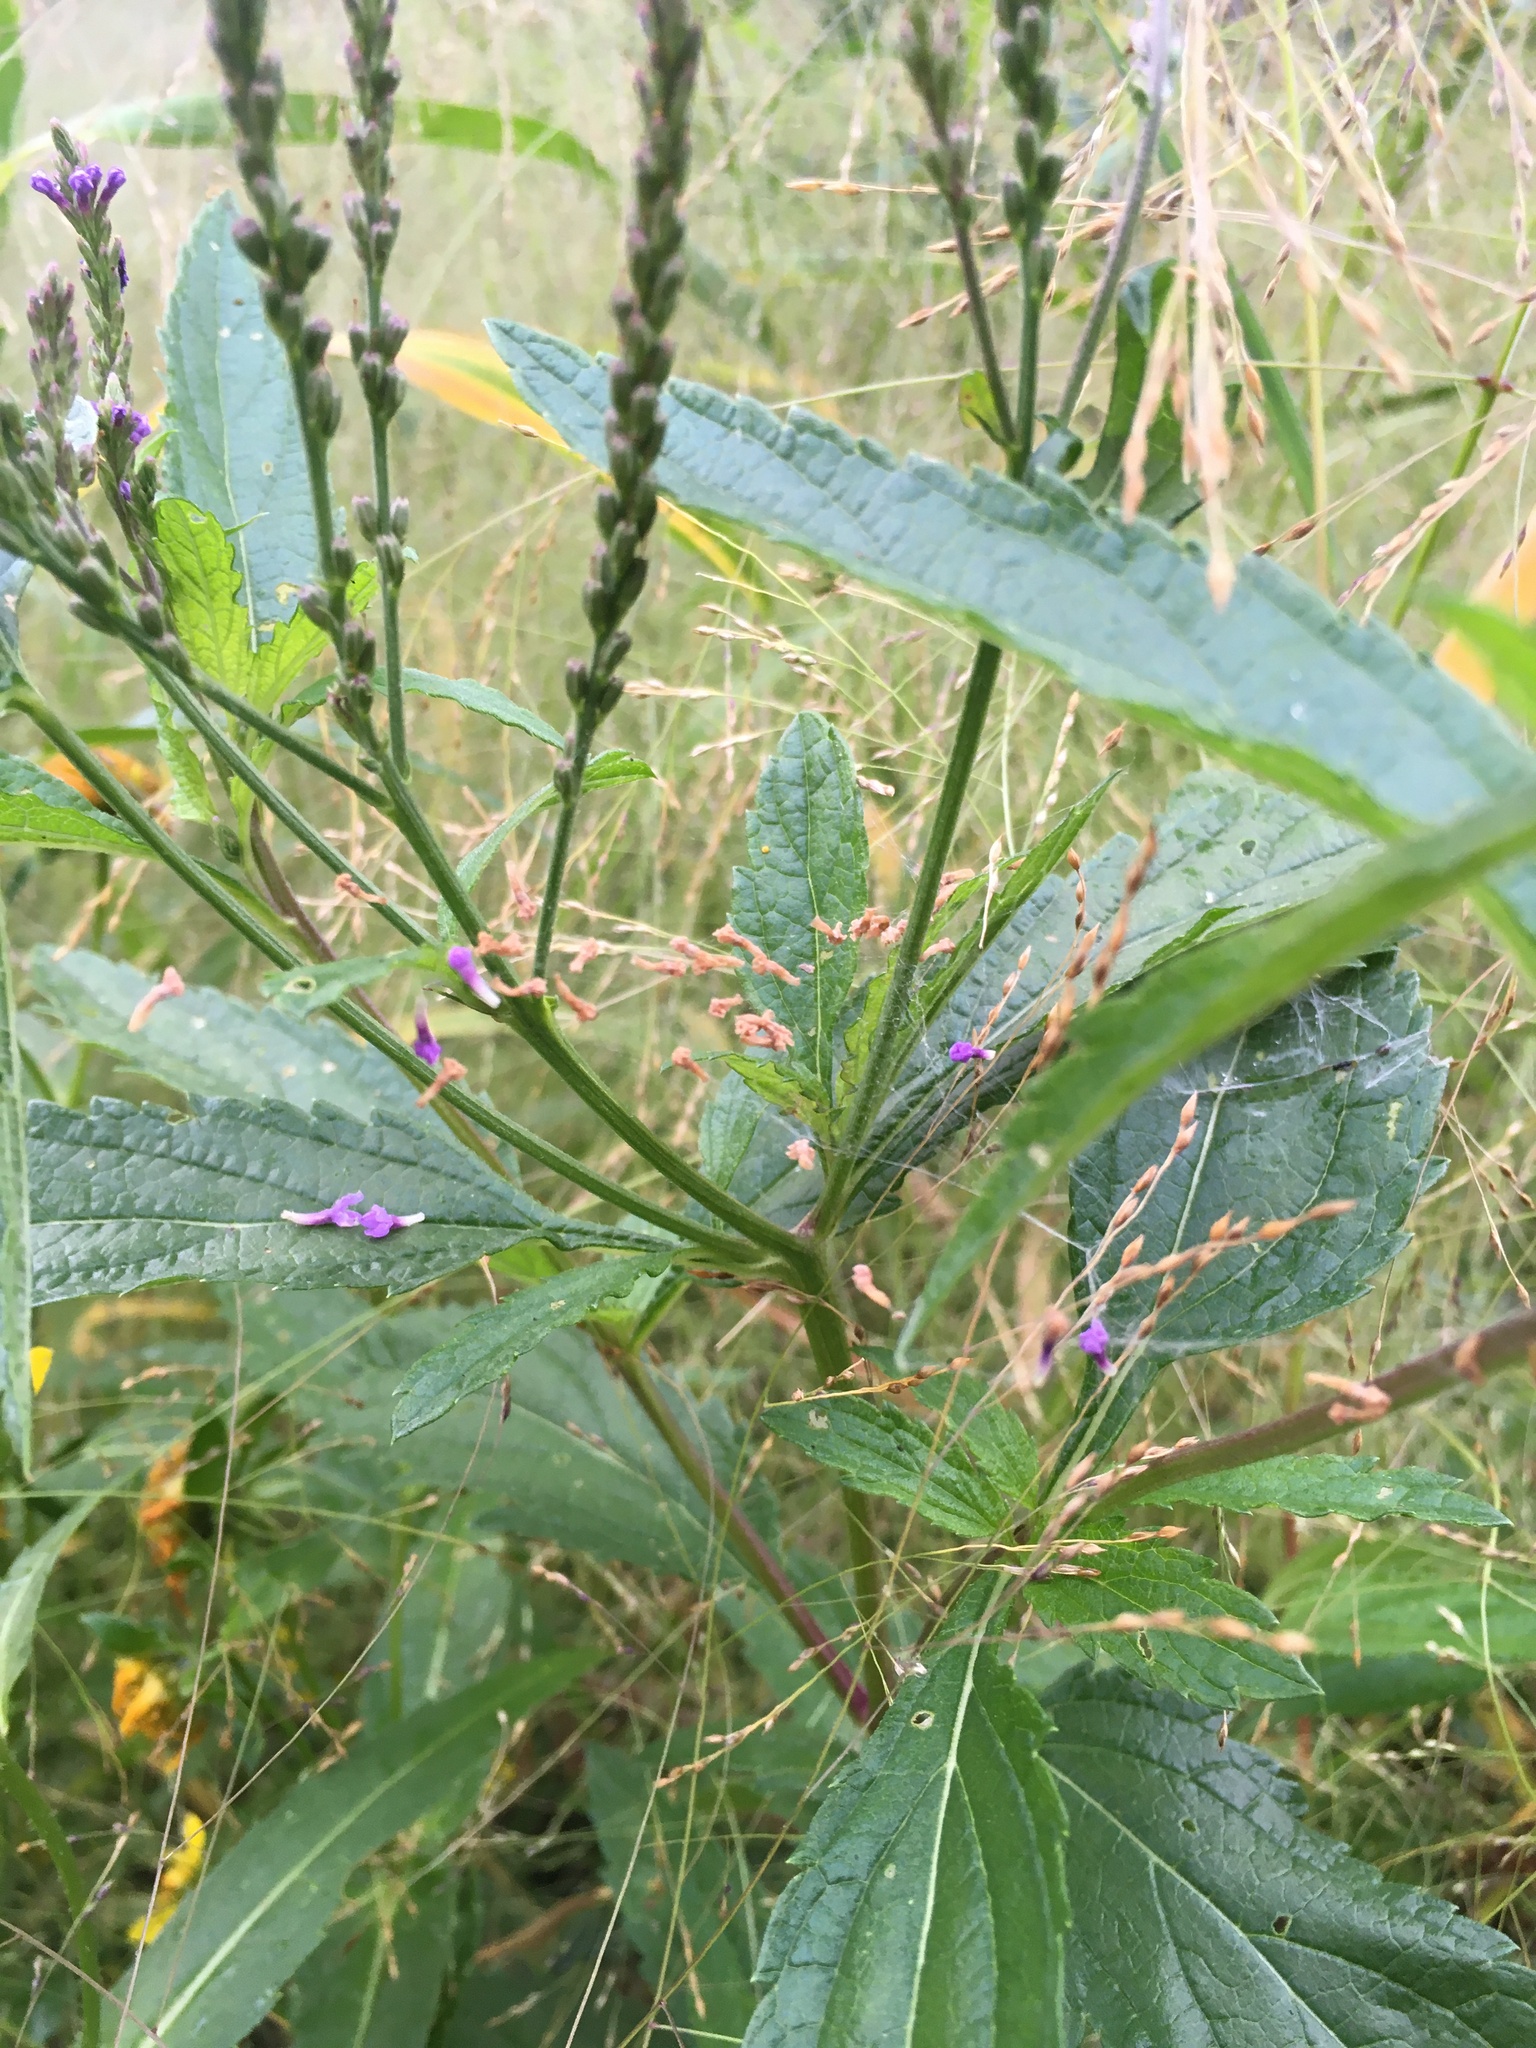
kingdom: Plantae
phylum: Tracheophyta
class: Magnoliopsida
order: Lamiales
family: Verbenaceae
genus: Verbena
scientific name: Verbena hastata
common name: American blue vervain
